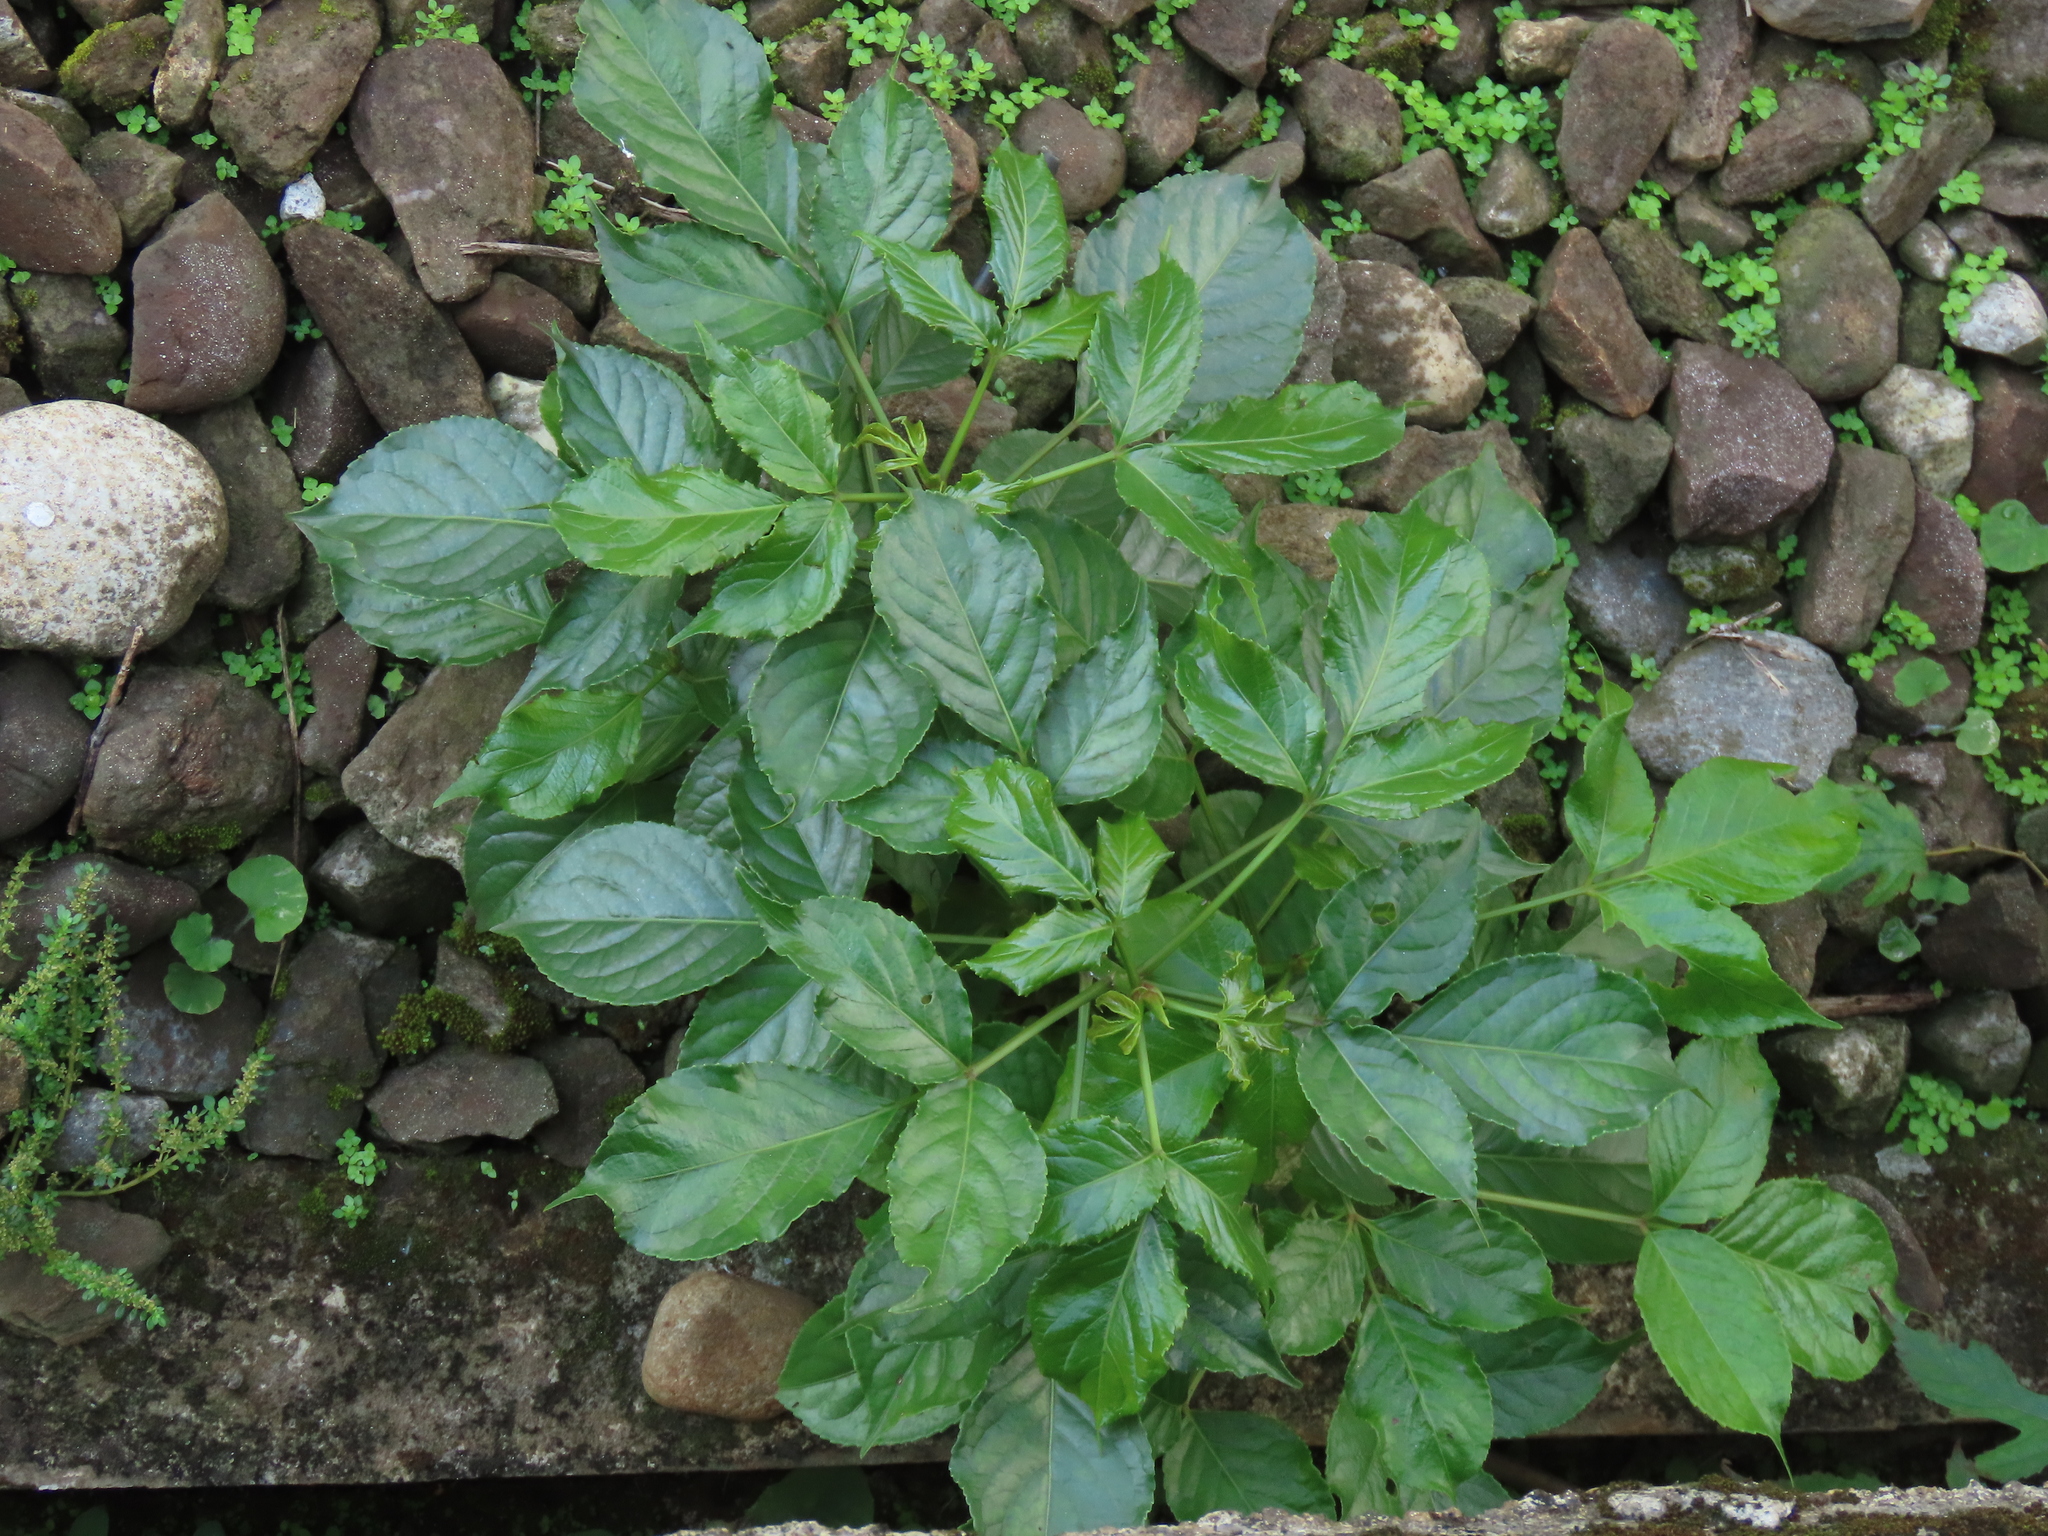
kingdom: Plantae
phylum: Tracheophyta
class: Magnoliopsida
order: Malpighiales
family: Phyllanthaceae
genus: Bischofia
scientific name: Bischofia javanica
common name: Javanese bishopwood
